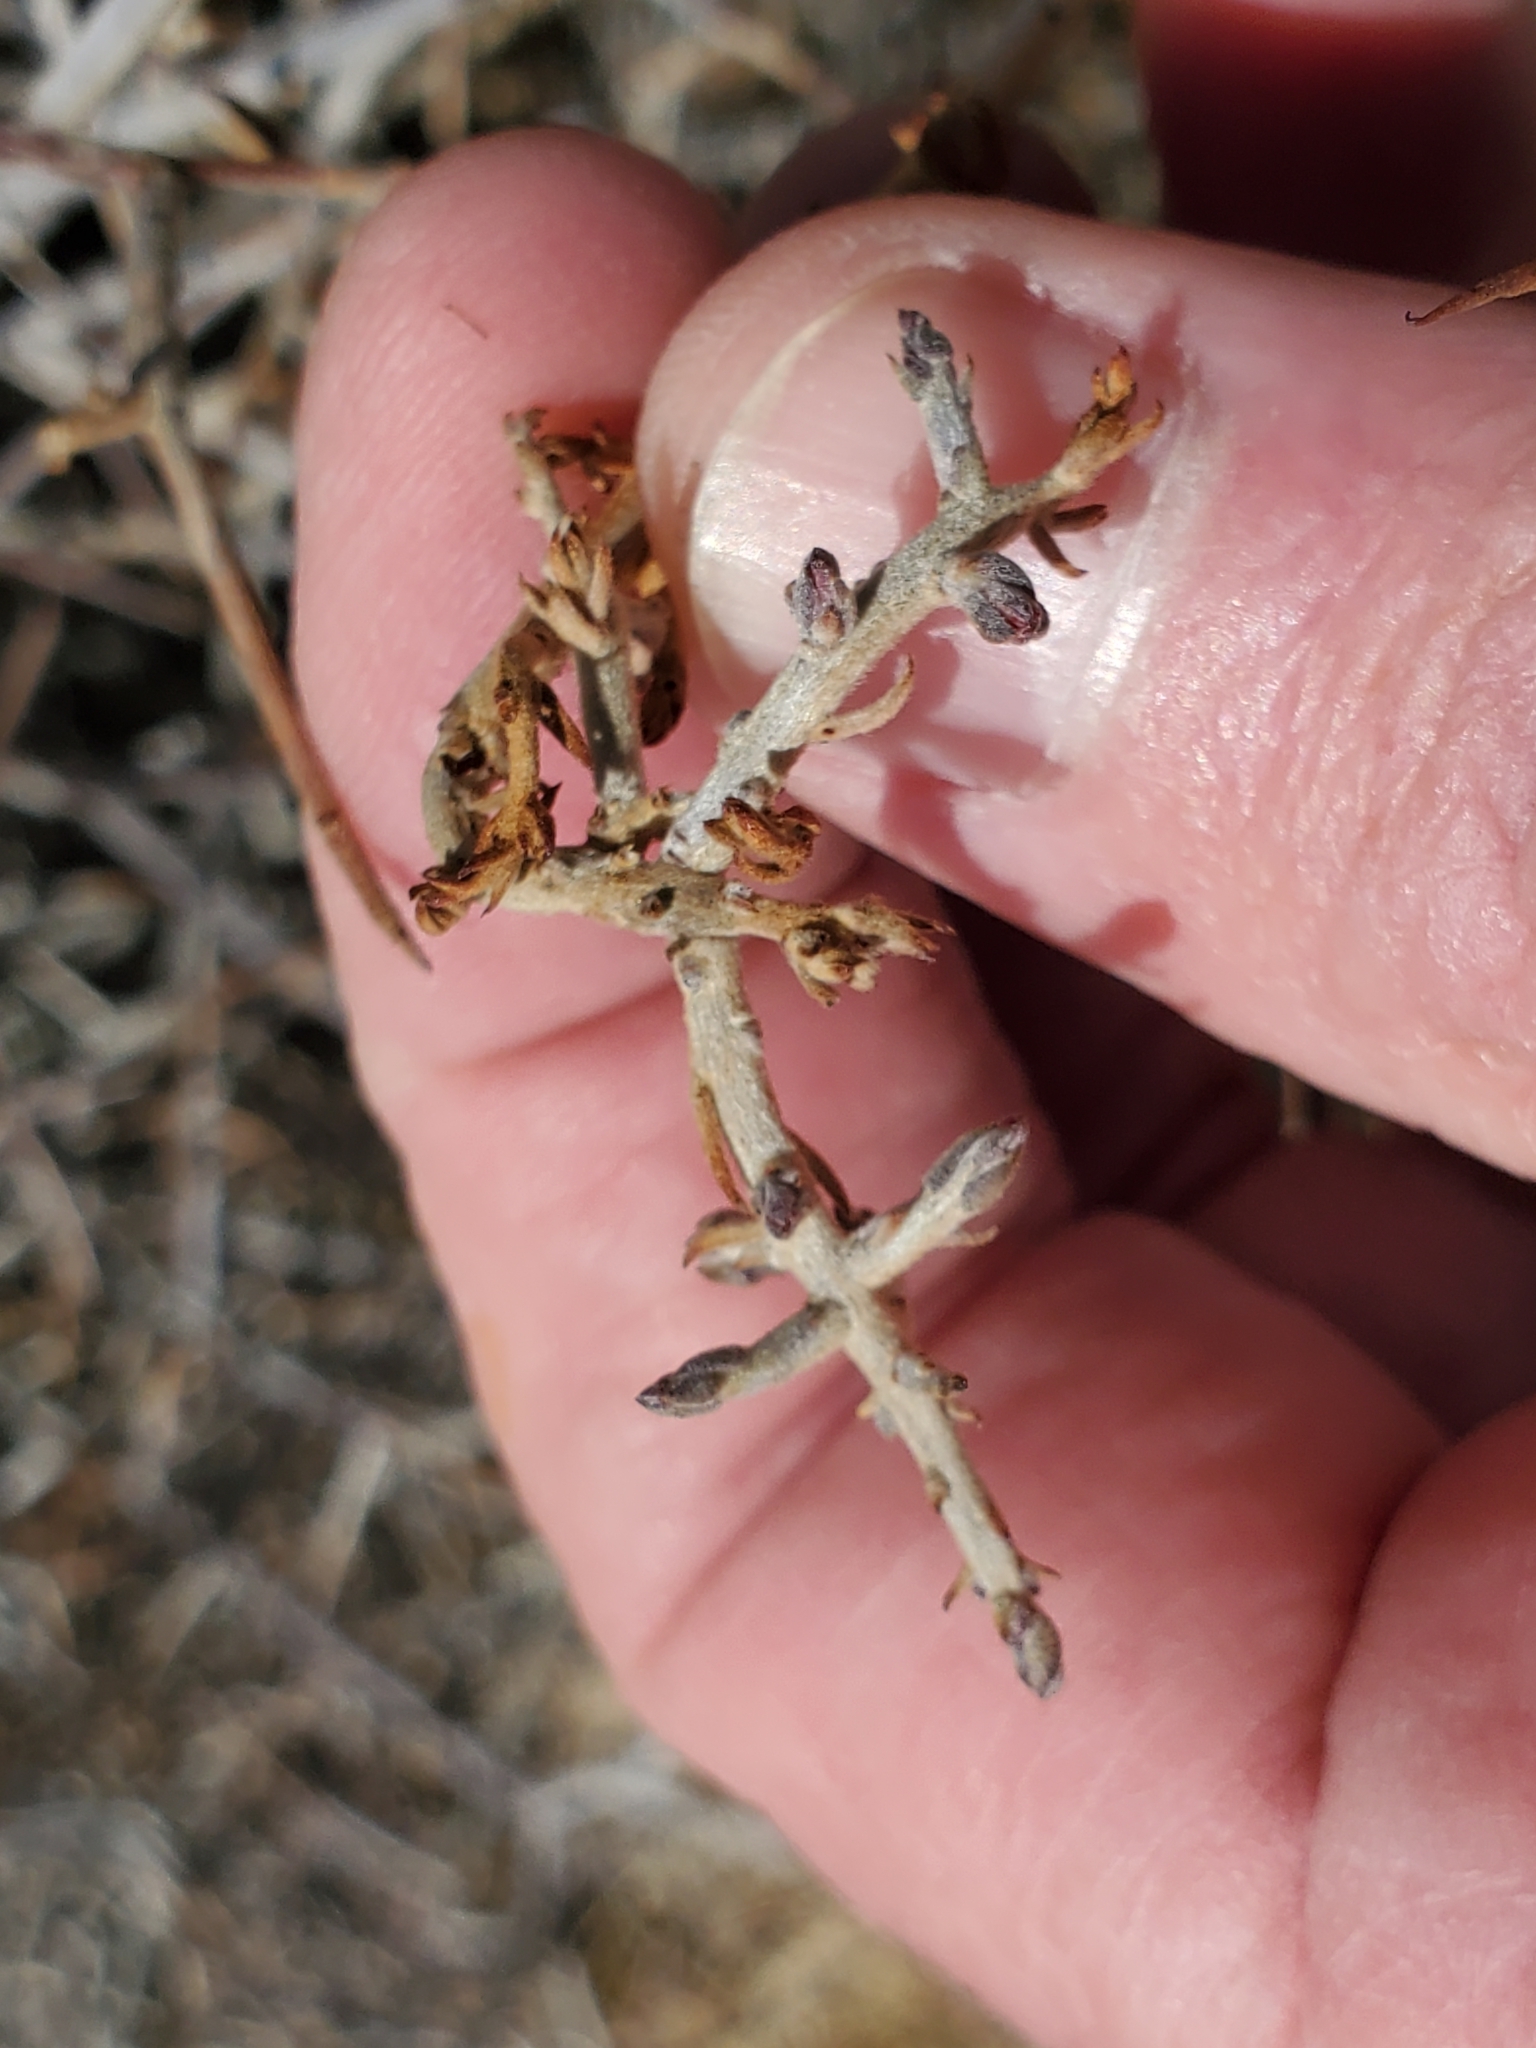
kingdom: Plantae
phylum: Tracheophyta
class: Magnoliopsida
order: Zygophyllales
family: Krameriaceae
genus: Krameria
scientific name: Krameria bicolor
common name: White ratany
